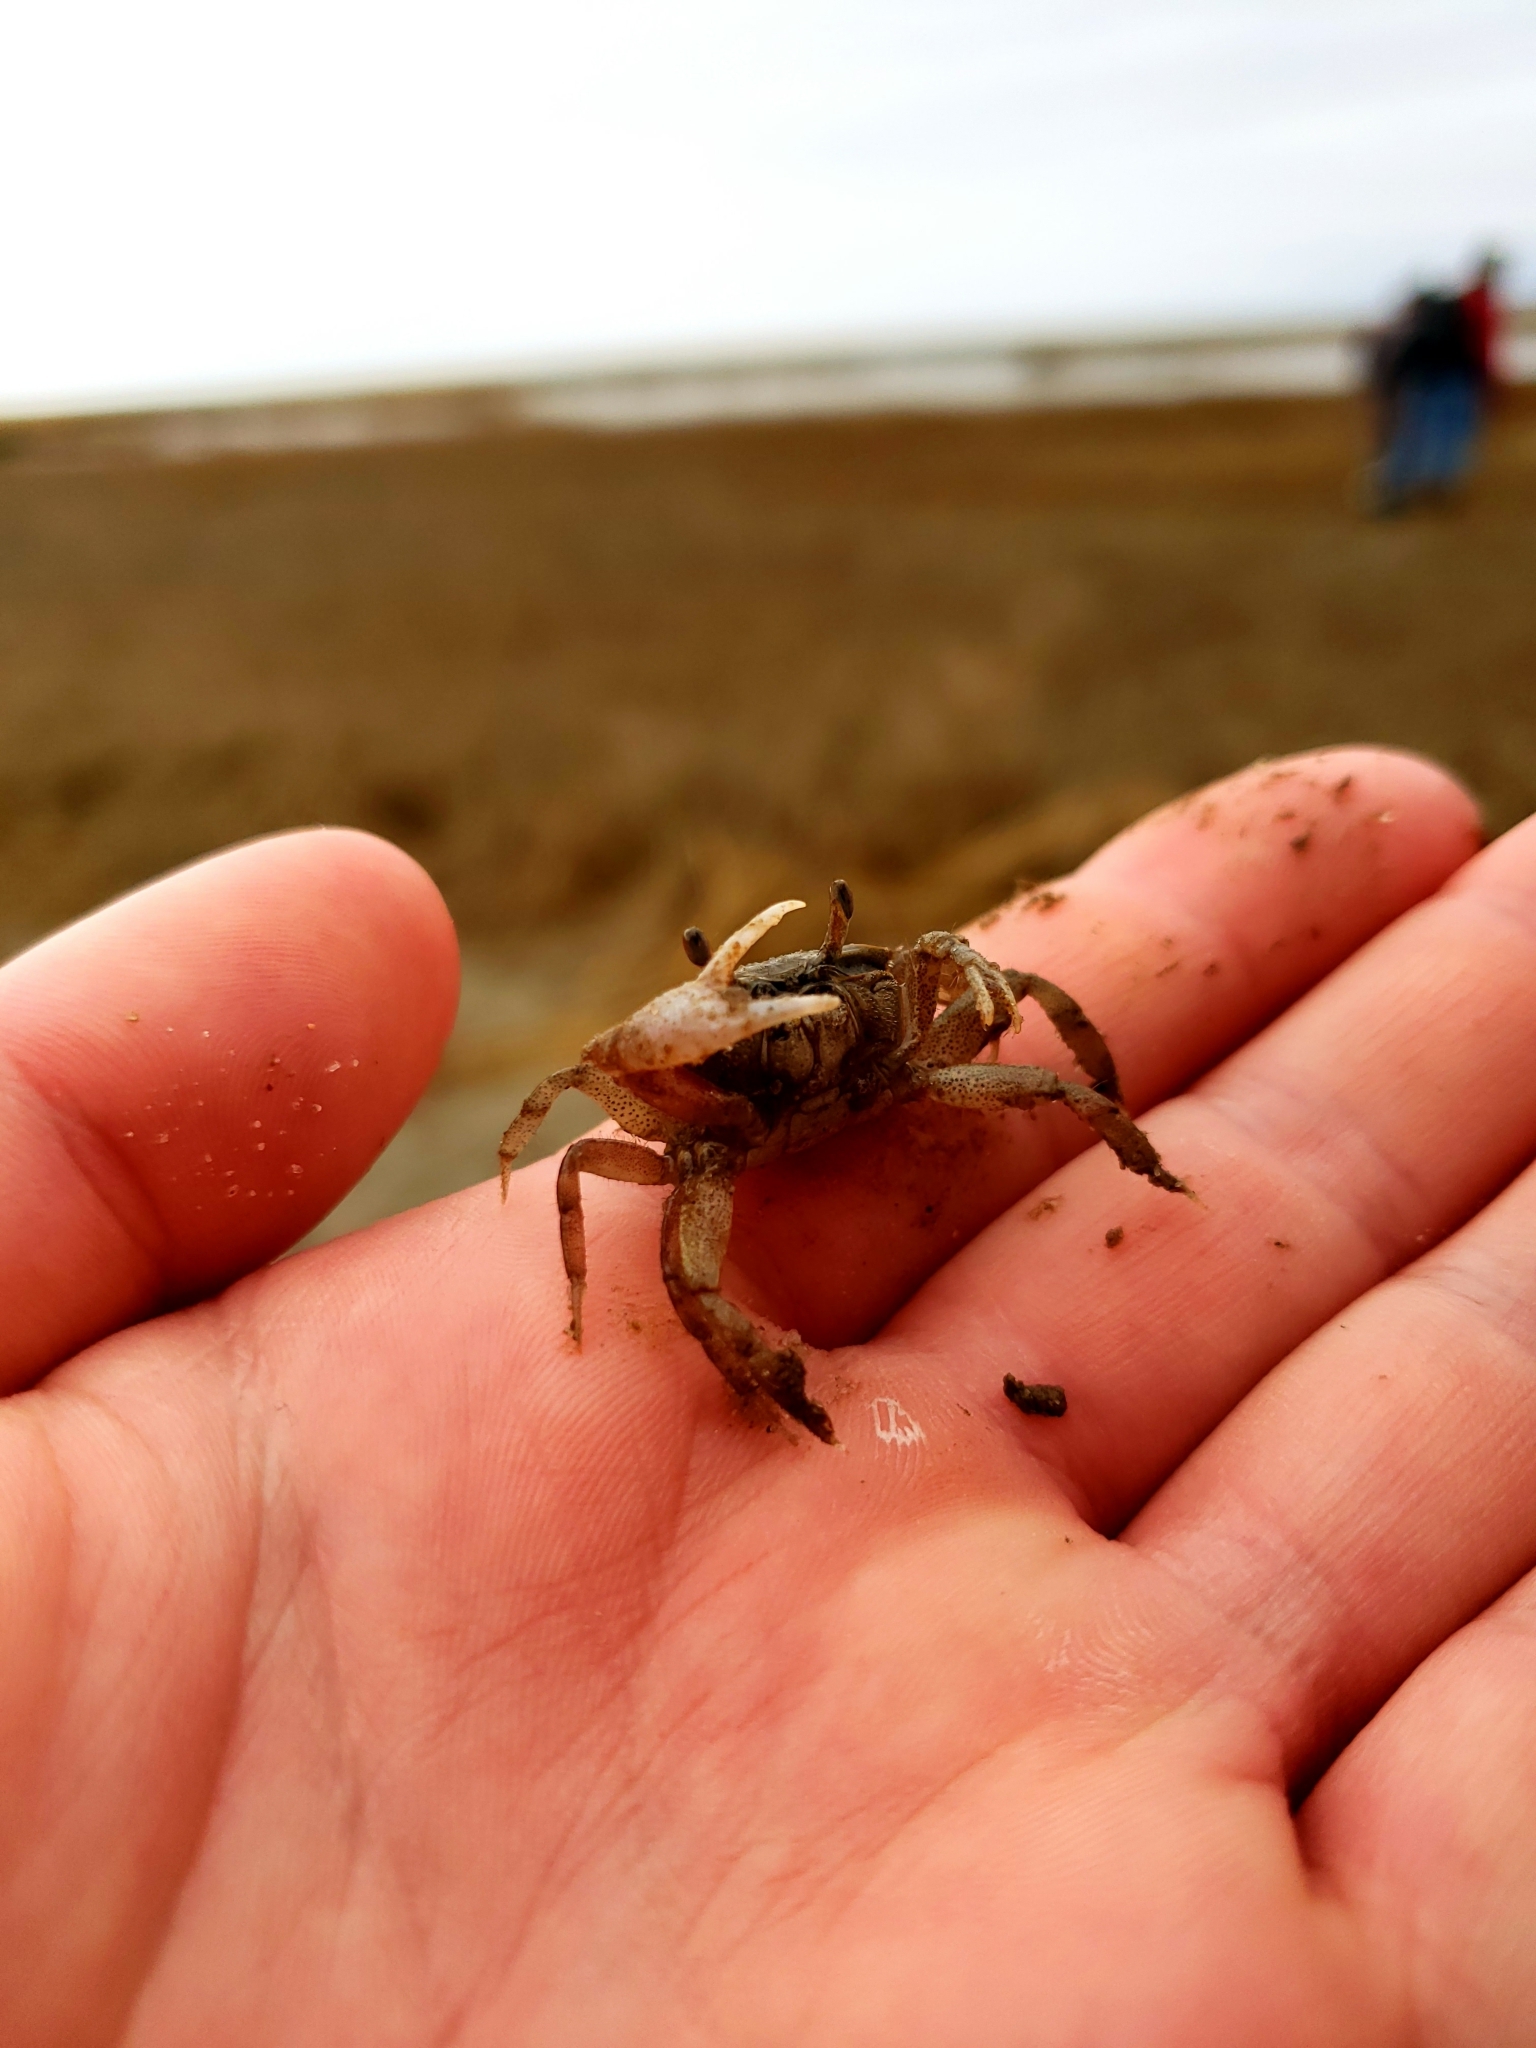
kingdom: Animalia
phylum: Arthropoda
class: Malacostraca
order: Decapoda
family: Ocypodidae
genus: Leptuca
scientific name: Leptuca pugilator
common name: Atlantic sand fiddler crab
